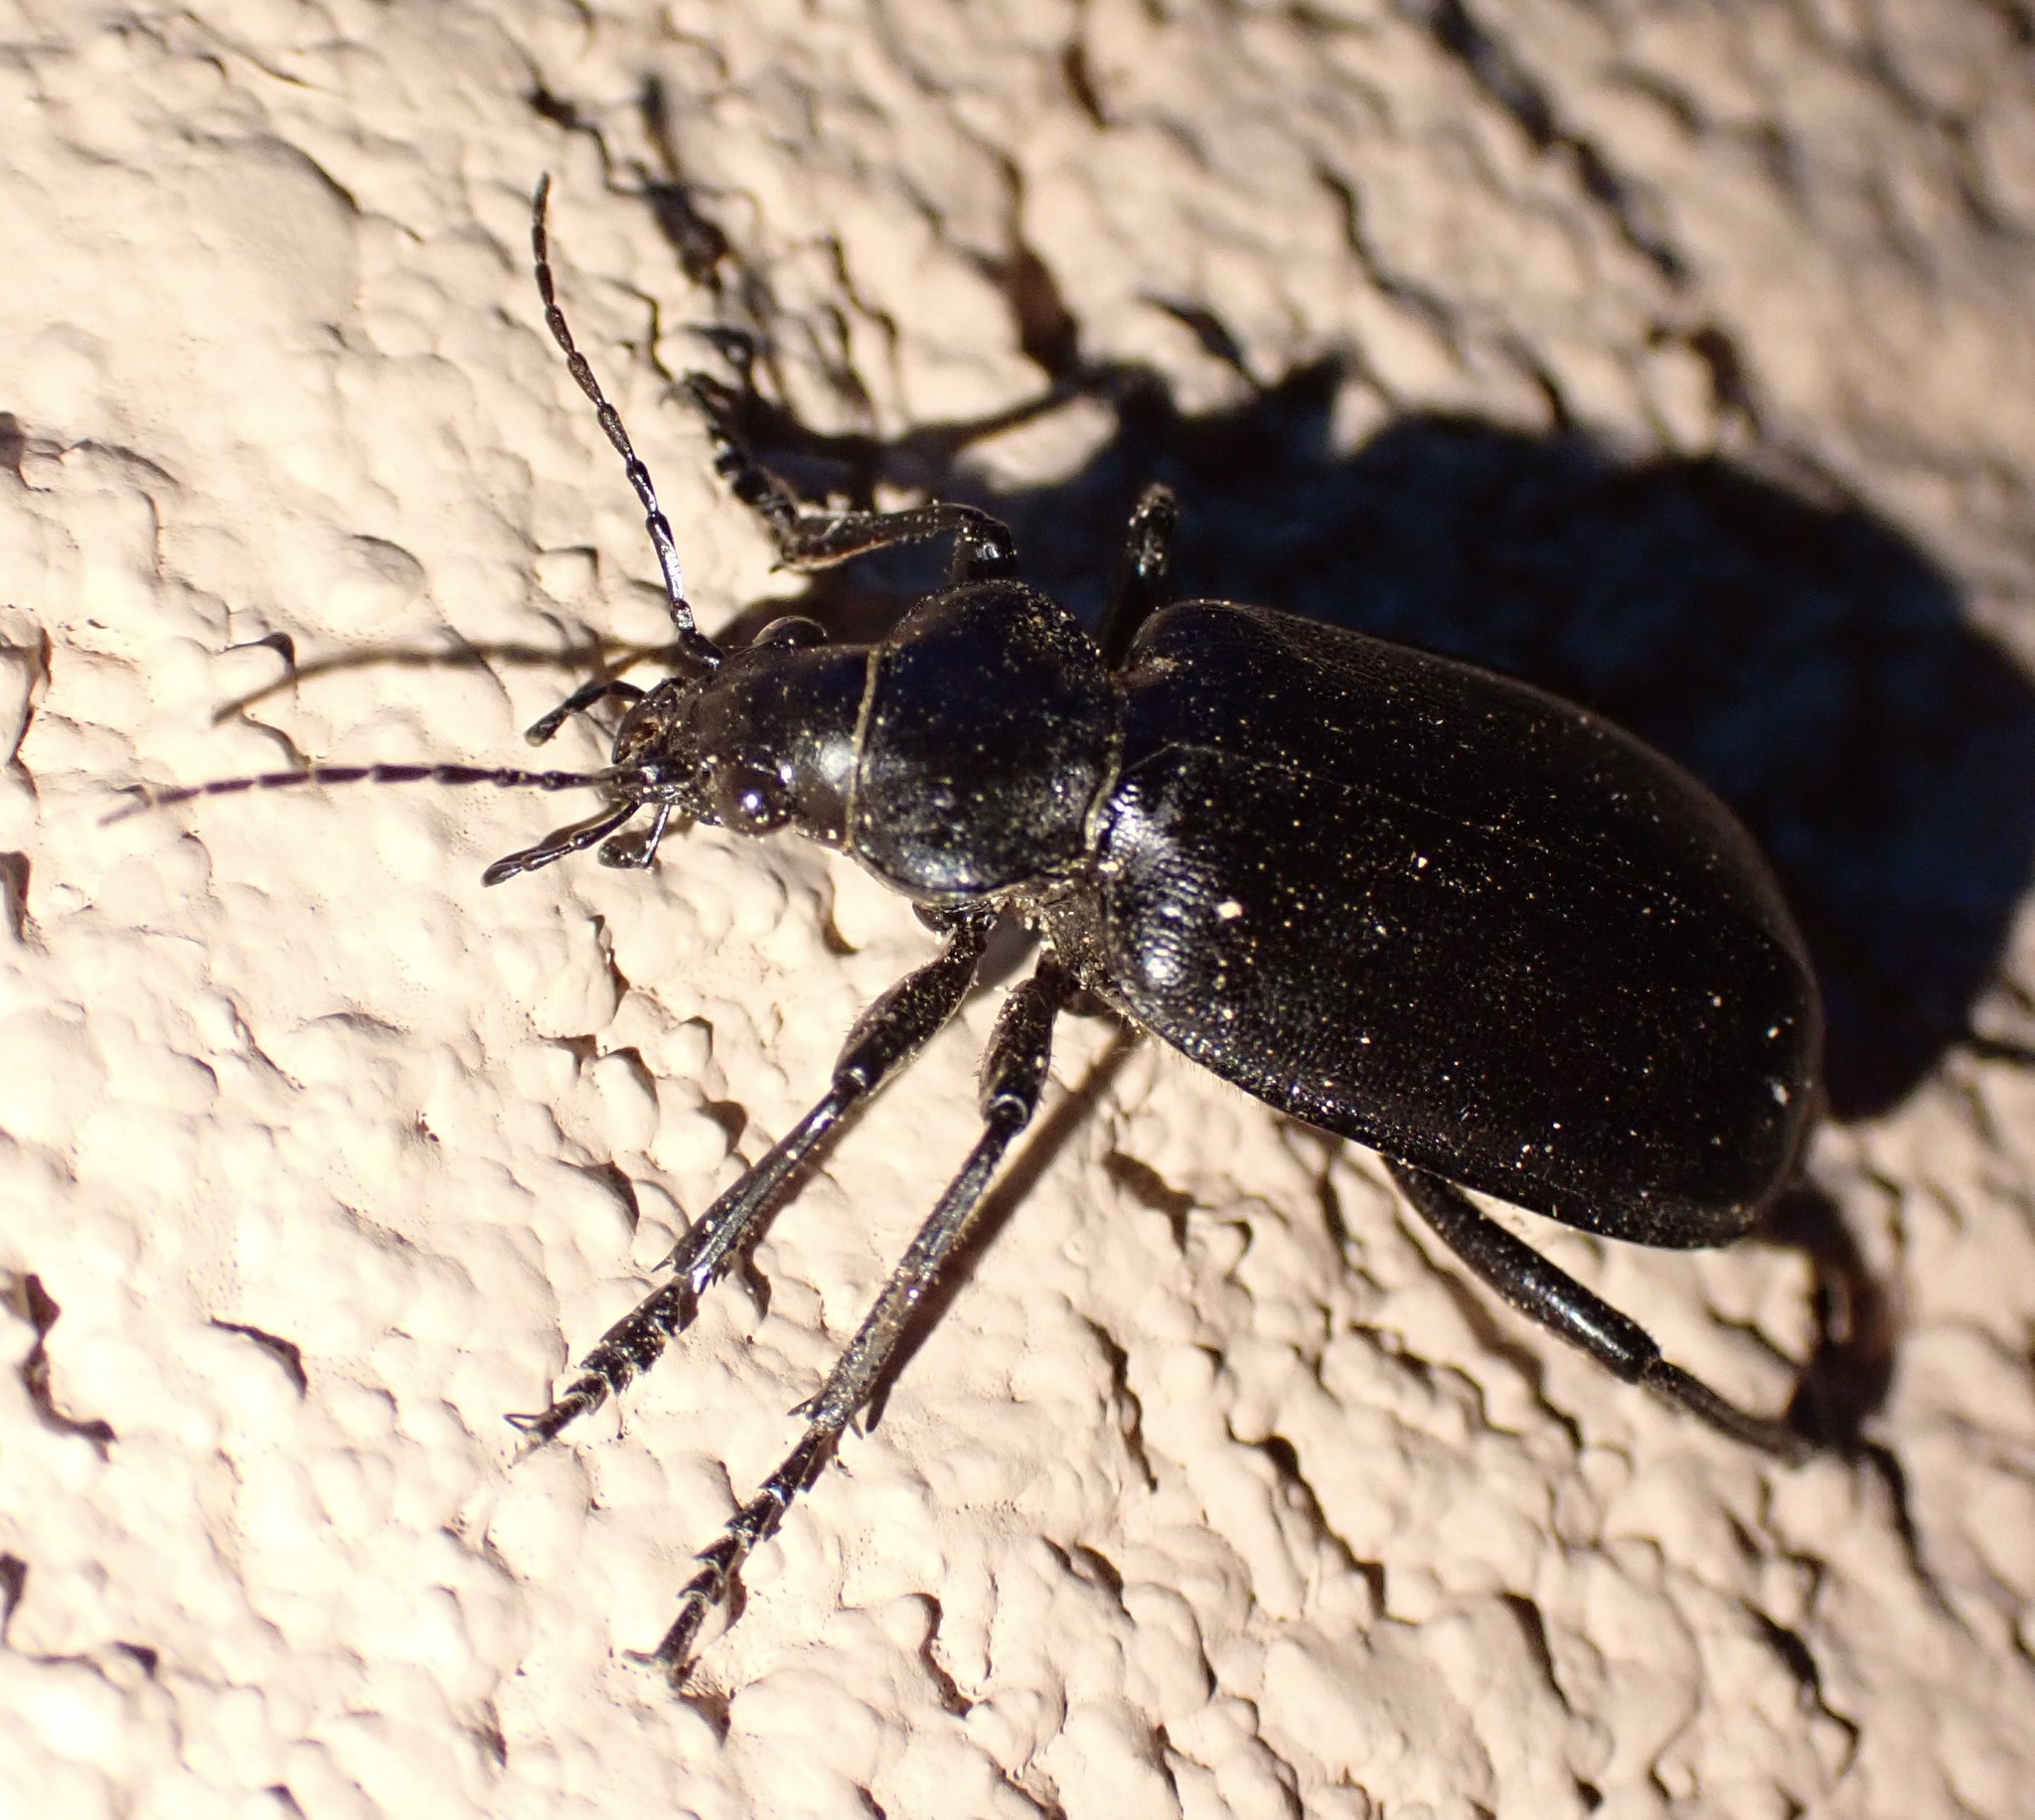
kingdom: Animalia
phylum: Arthropoda
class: Insecta
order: Coleoptera
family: Carabidae
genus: Calosoma
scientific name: Calosoma maderae
